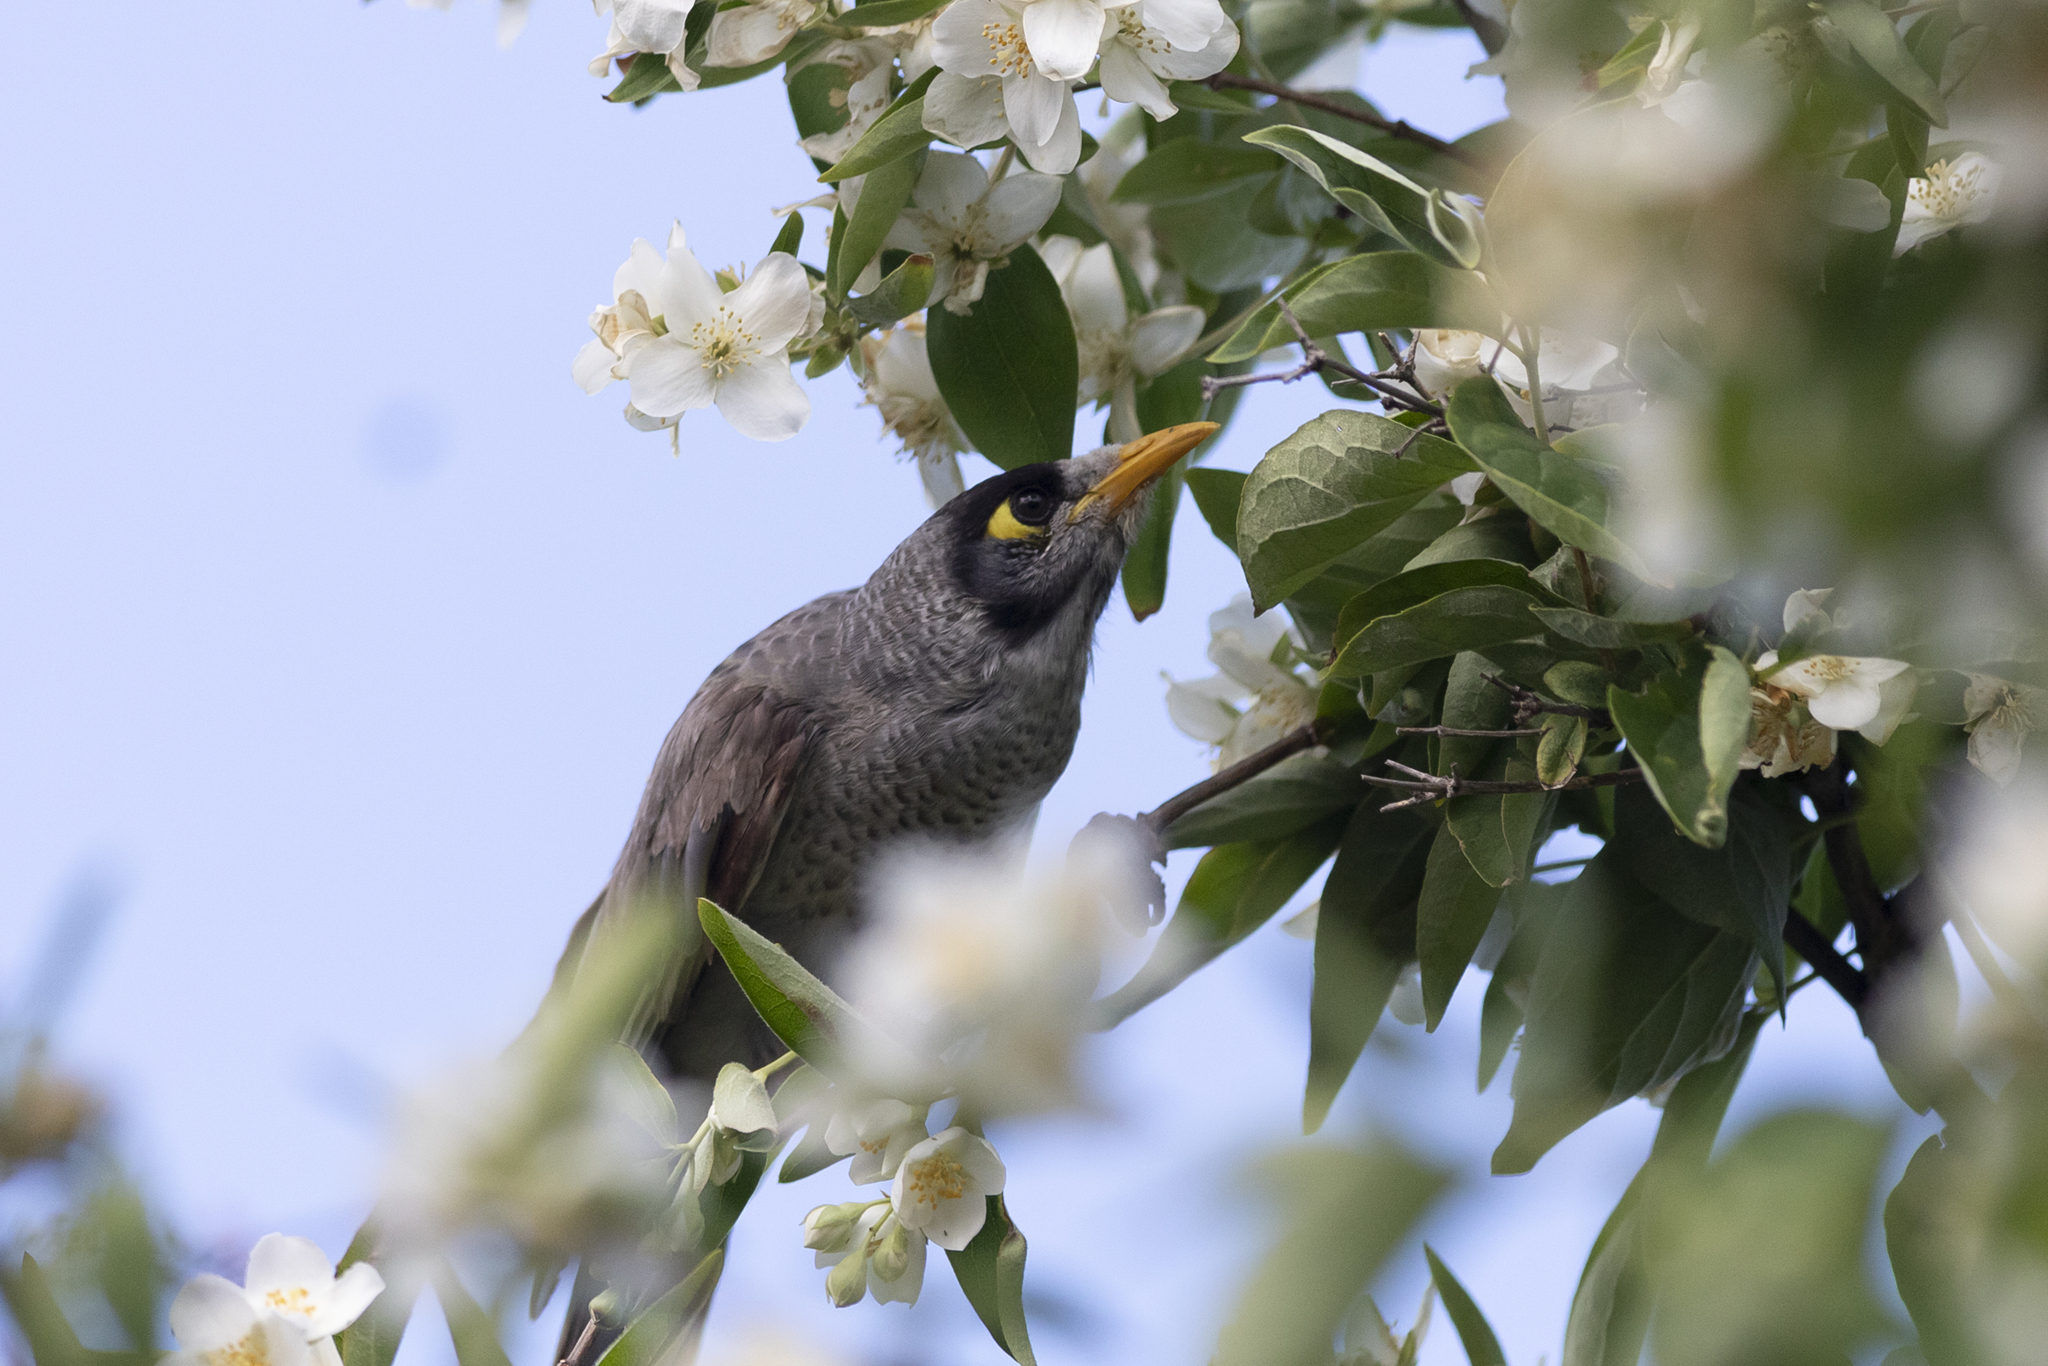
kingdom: Animalia
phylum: Chordata
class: Aves
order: Passeriformes
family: Meliphagidae
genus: Manorina
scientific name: Manorina melanocephala
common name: Noisy miner
